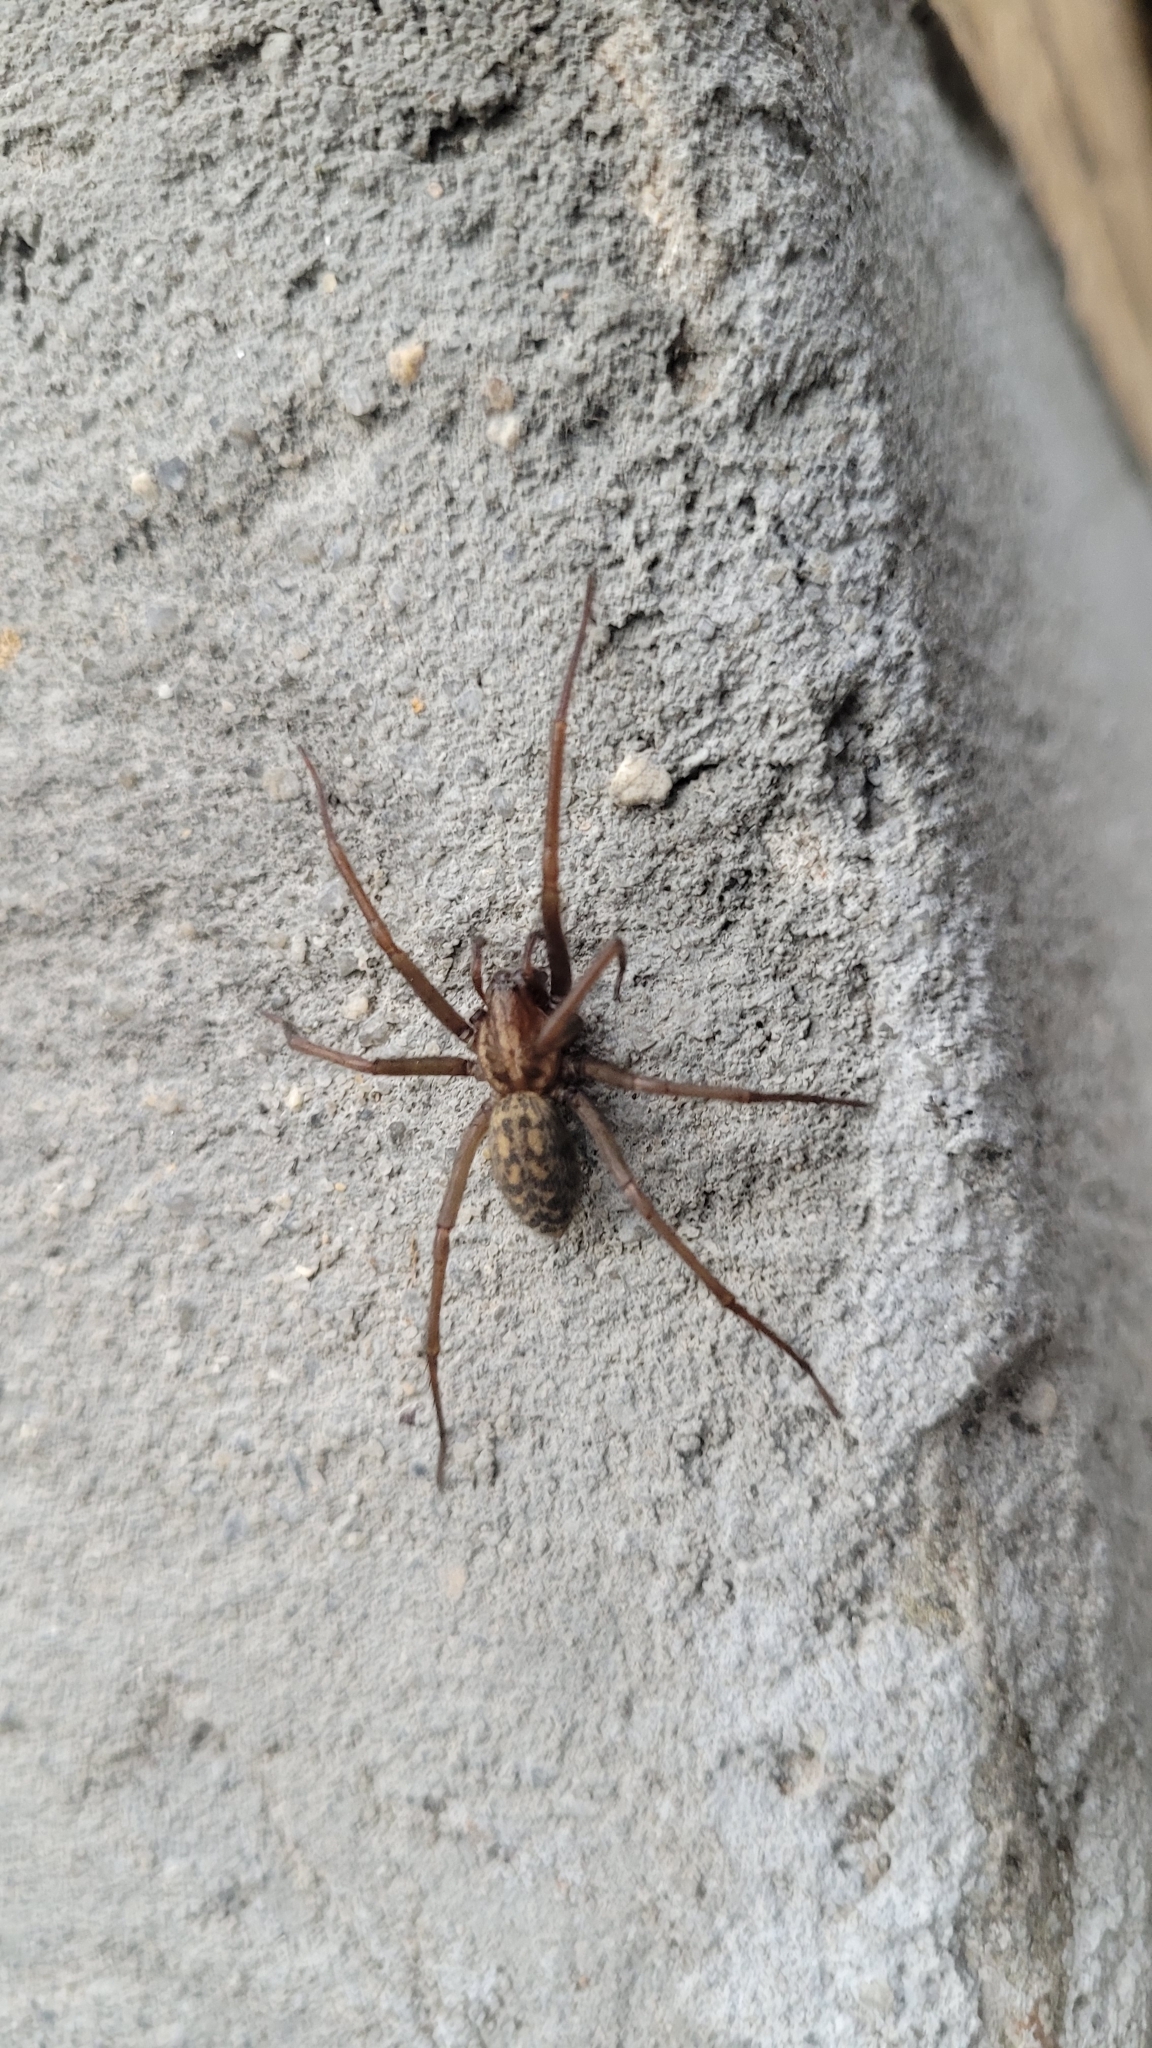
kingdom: Animalia
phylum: Arthropoda
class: Arachnida
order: Araneae
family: Agelenidae
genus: Eratigena
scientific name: Eratigena atrica
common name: Giant house spider
